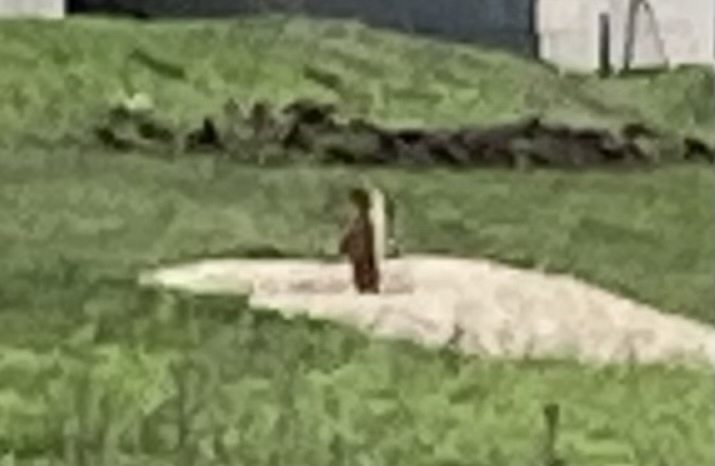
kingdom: Animalia
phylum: Chordata
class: Mammalia
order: Rodentia
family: Sciuridae
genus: Marmota
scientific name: Marmota bobak
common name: Bobak marmot
